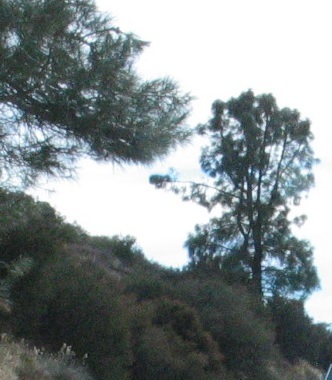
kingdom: Plantae
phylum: Tracheophyta
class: Pinopsida
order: Pinales
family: Pinaceae
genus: Pinus
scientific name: Pinus sabiniana
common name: Bull pine
